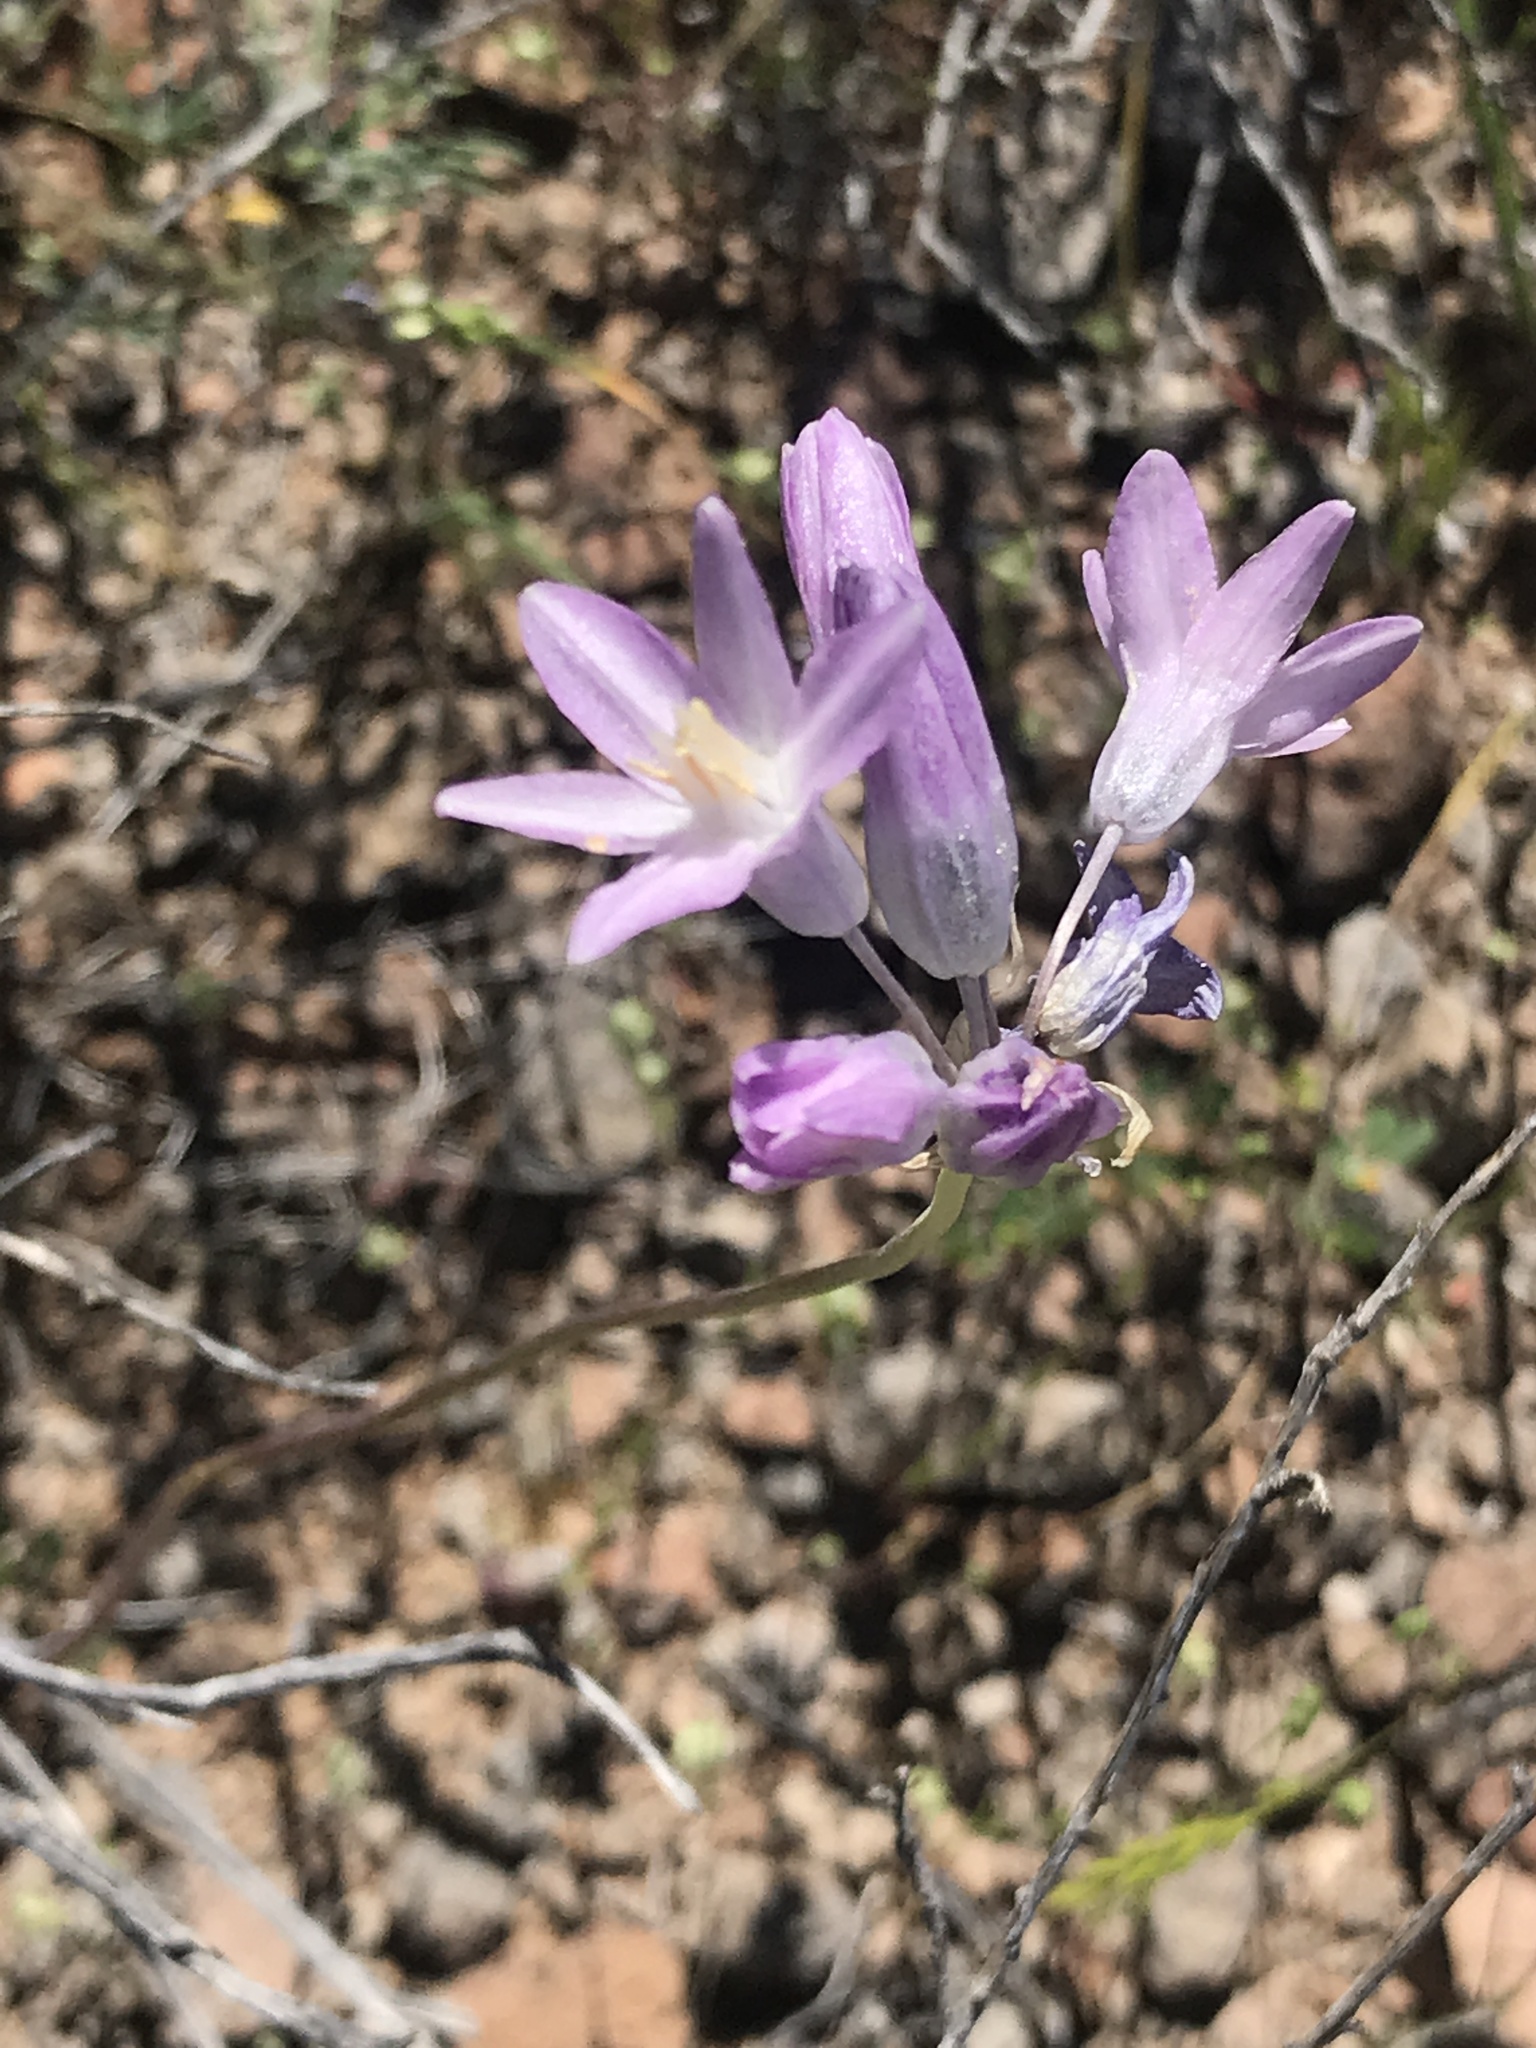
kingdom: Plantae
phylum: Tracheophyta
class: Liliopsida
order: Asparagales
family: Asparagaceae
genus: Dipterostemon
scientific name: Dipterostemon capitatus
